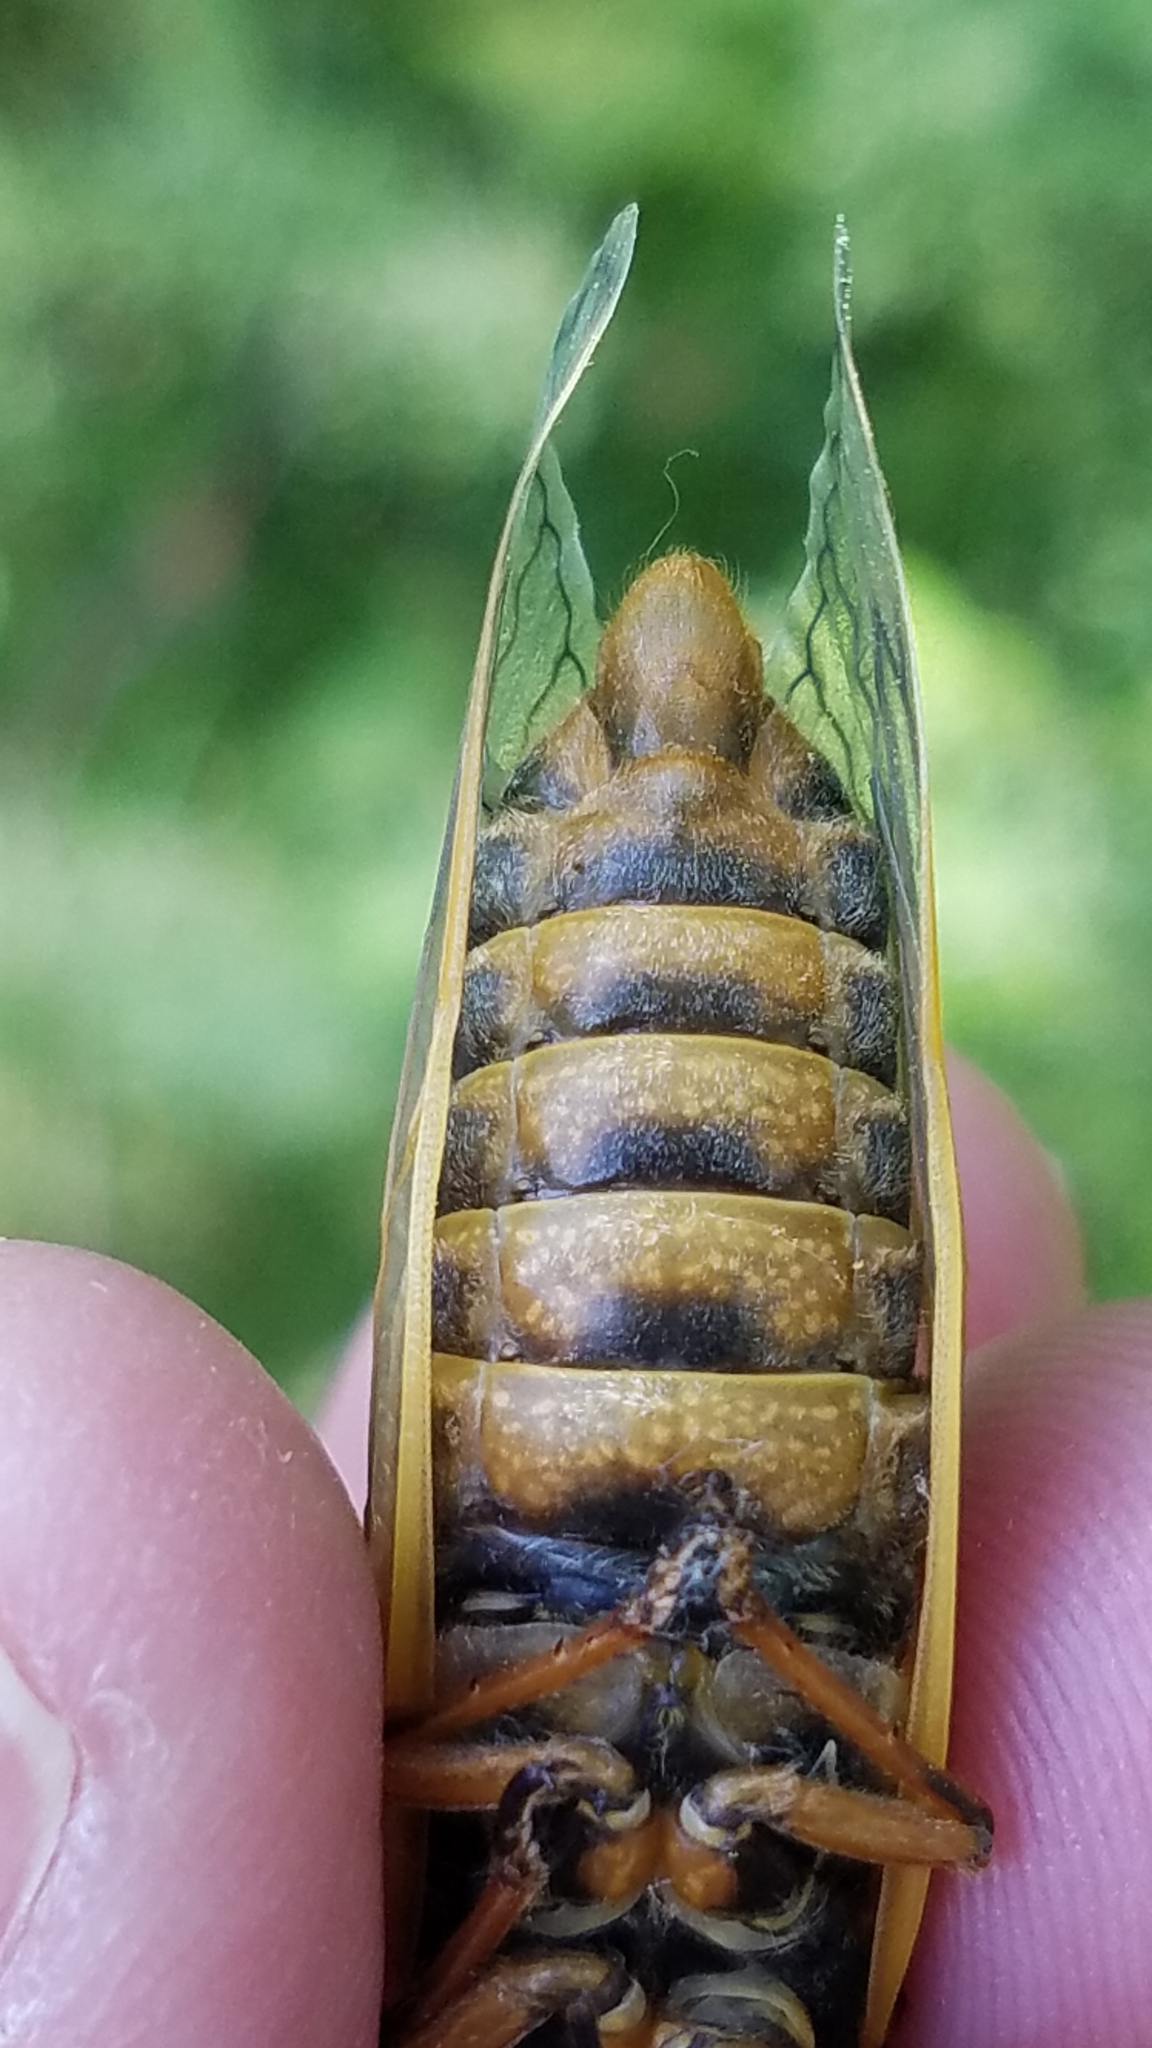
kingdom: Animalia
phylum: Arthropoda
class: Insecta
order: Hemiptera
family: Cicadidae
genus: Magicicada
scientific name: Magicicada septendecim
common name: Periodical cicada
